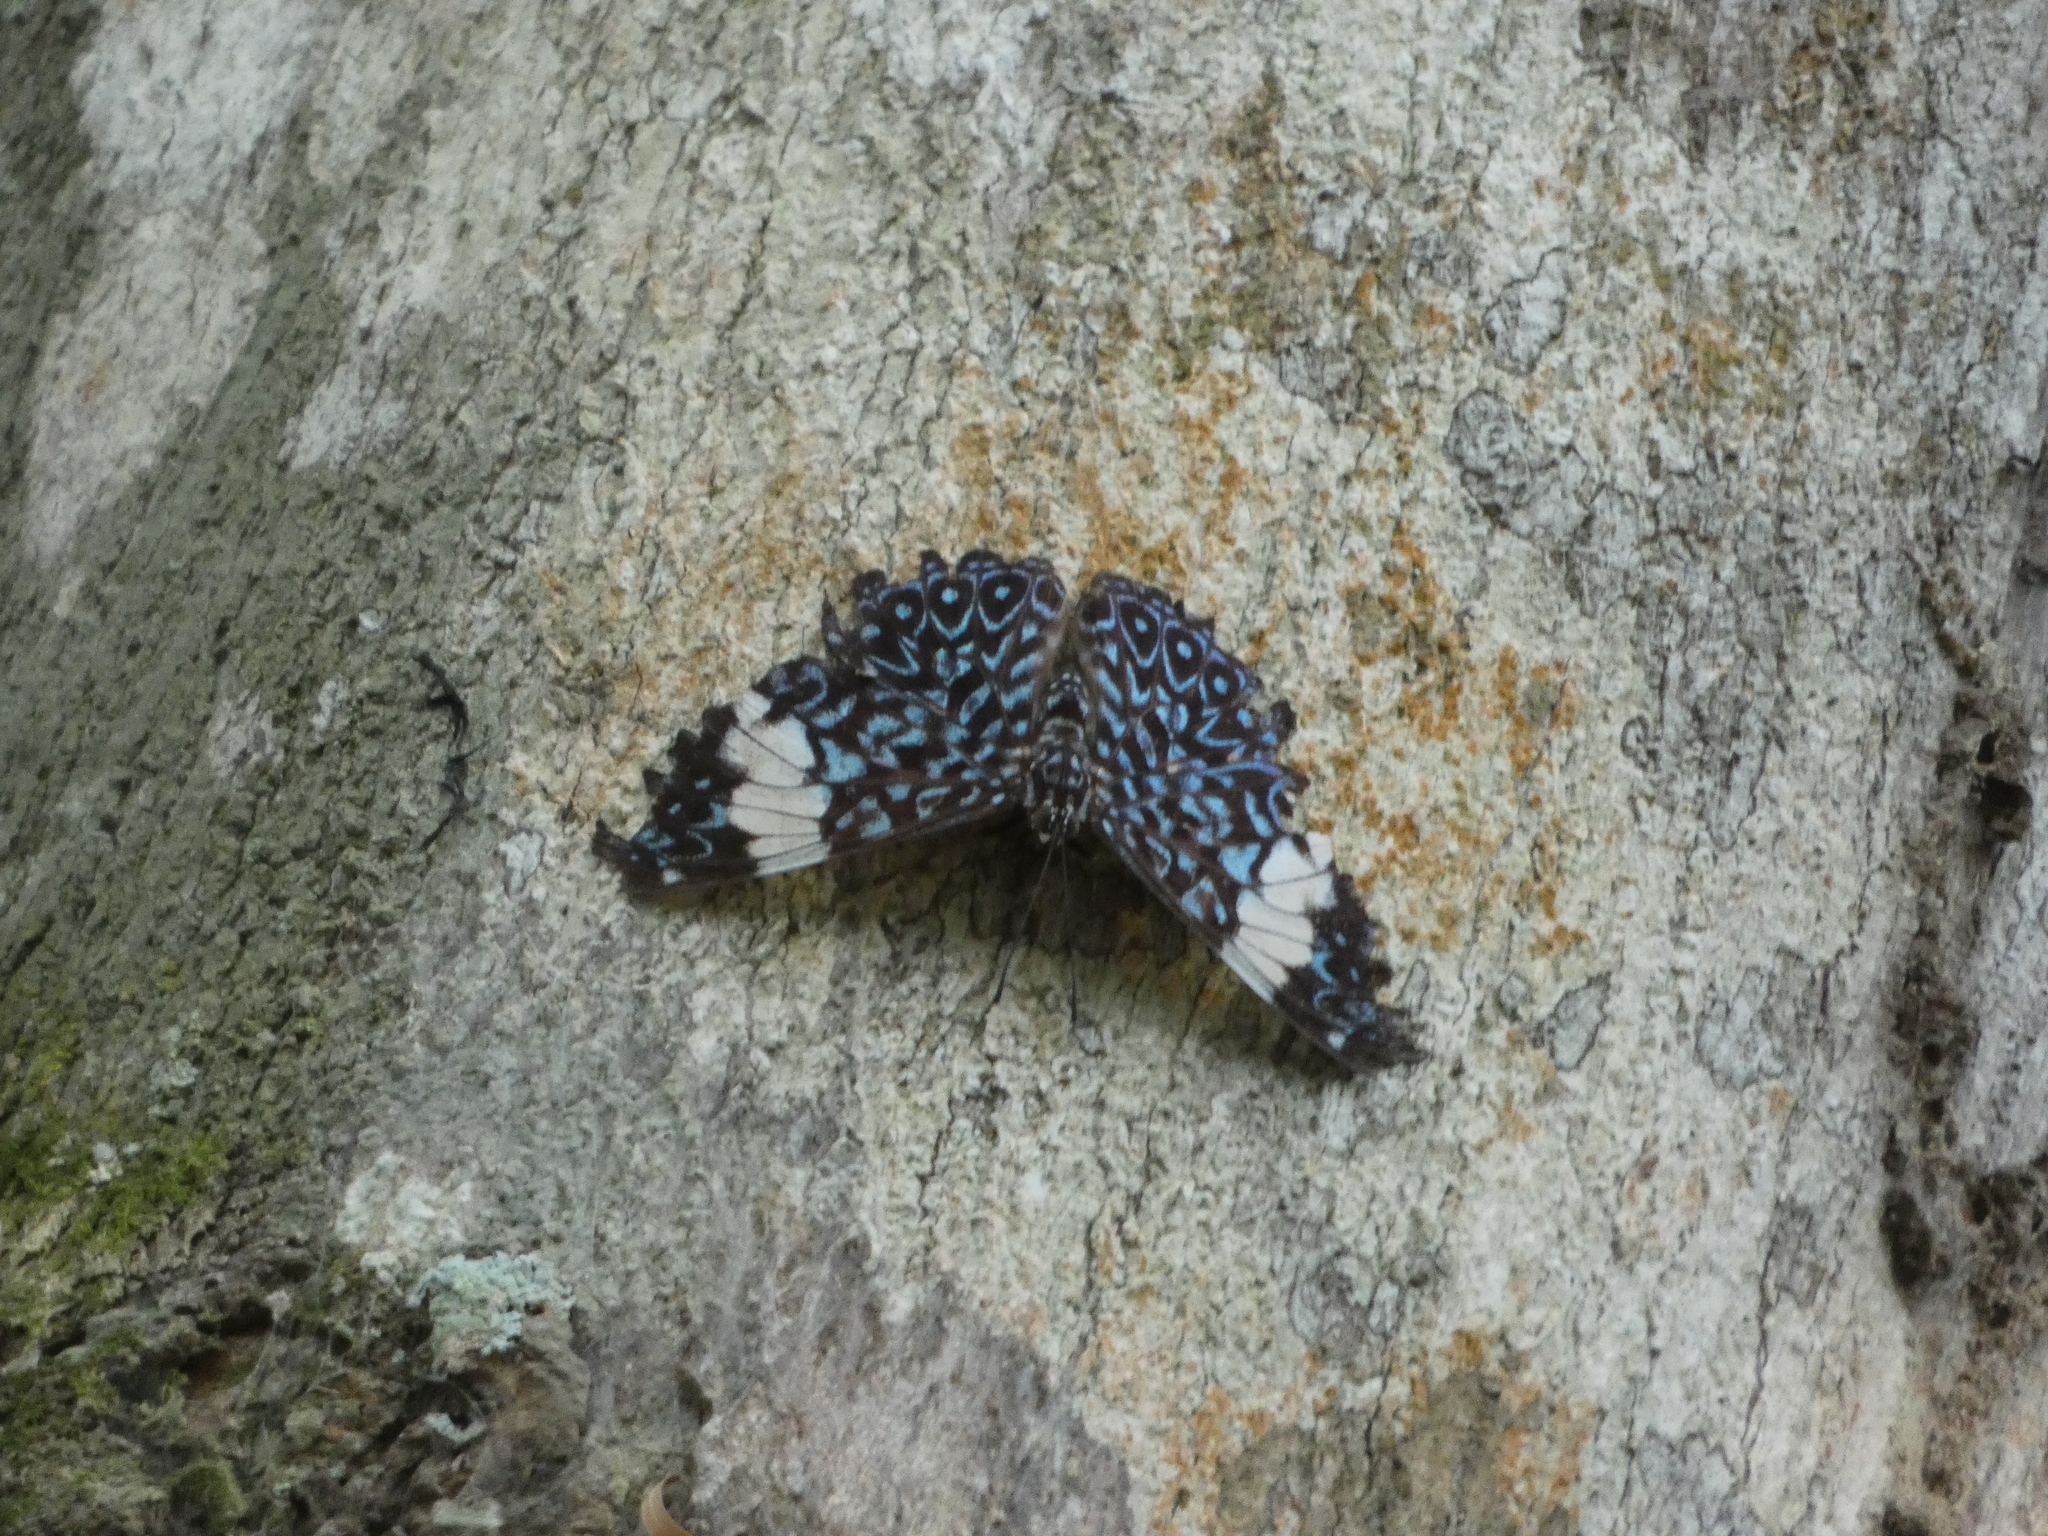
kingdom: Animalia
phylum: Arthropoda
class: Insecta
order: Lepidoptera
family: Nymphalidae
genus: Hamadryas
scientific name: Hamadryas amphinome
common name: Red cracker
